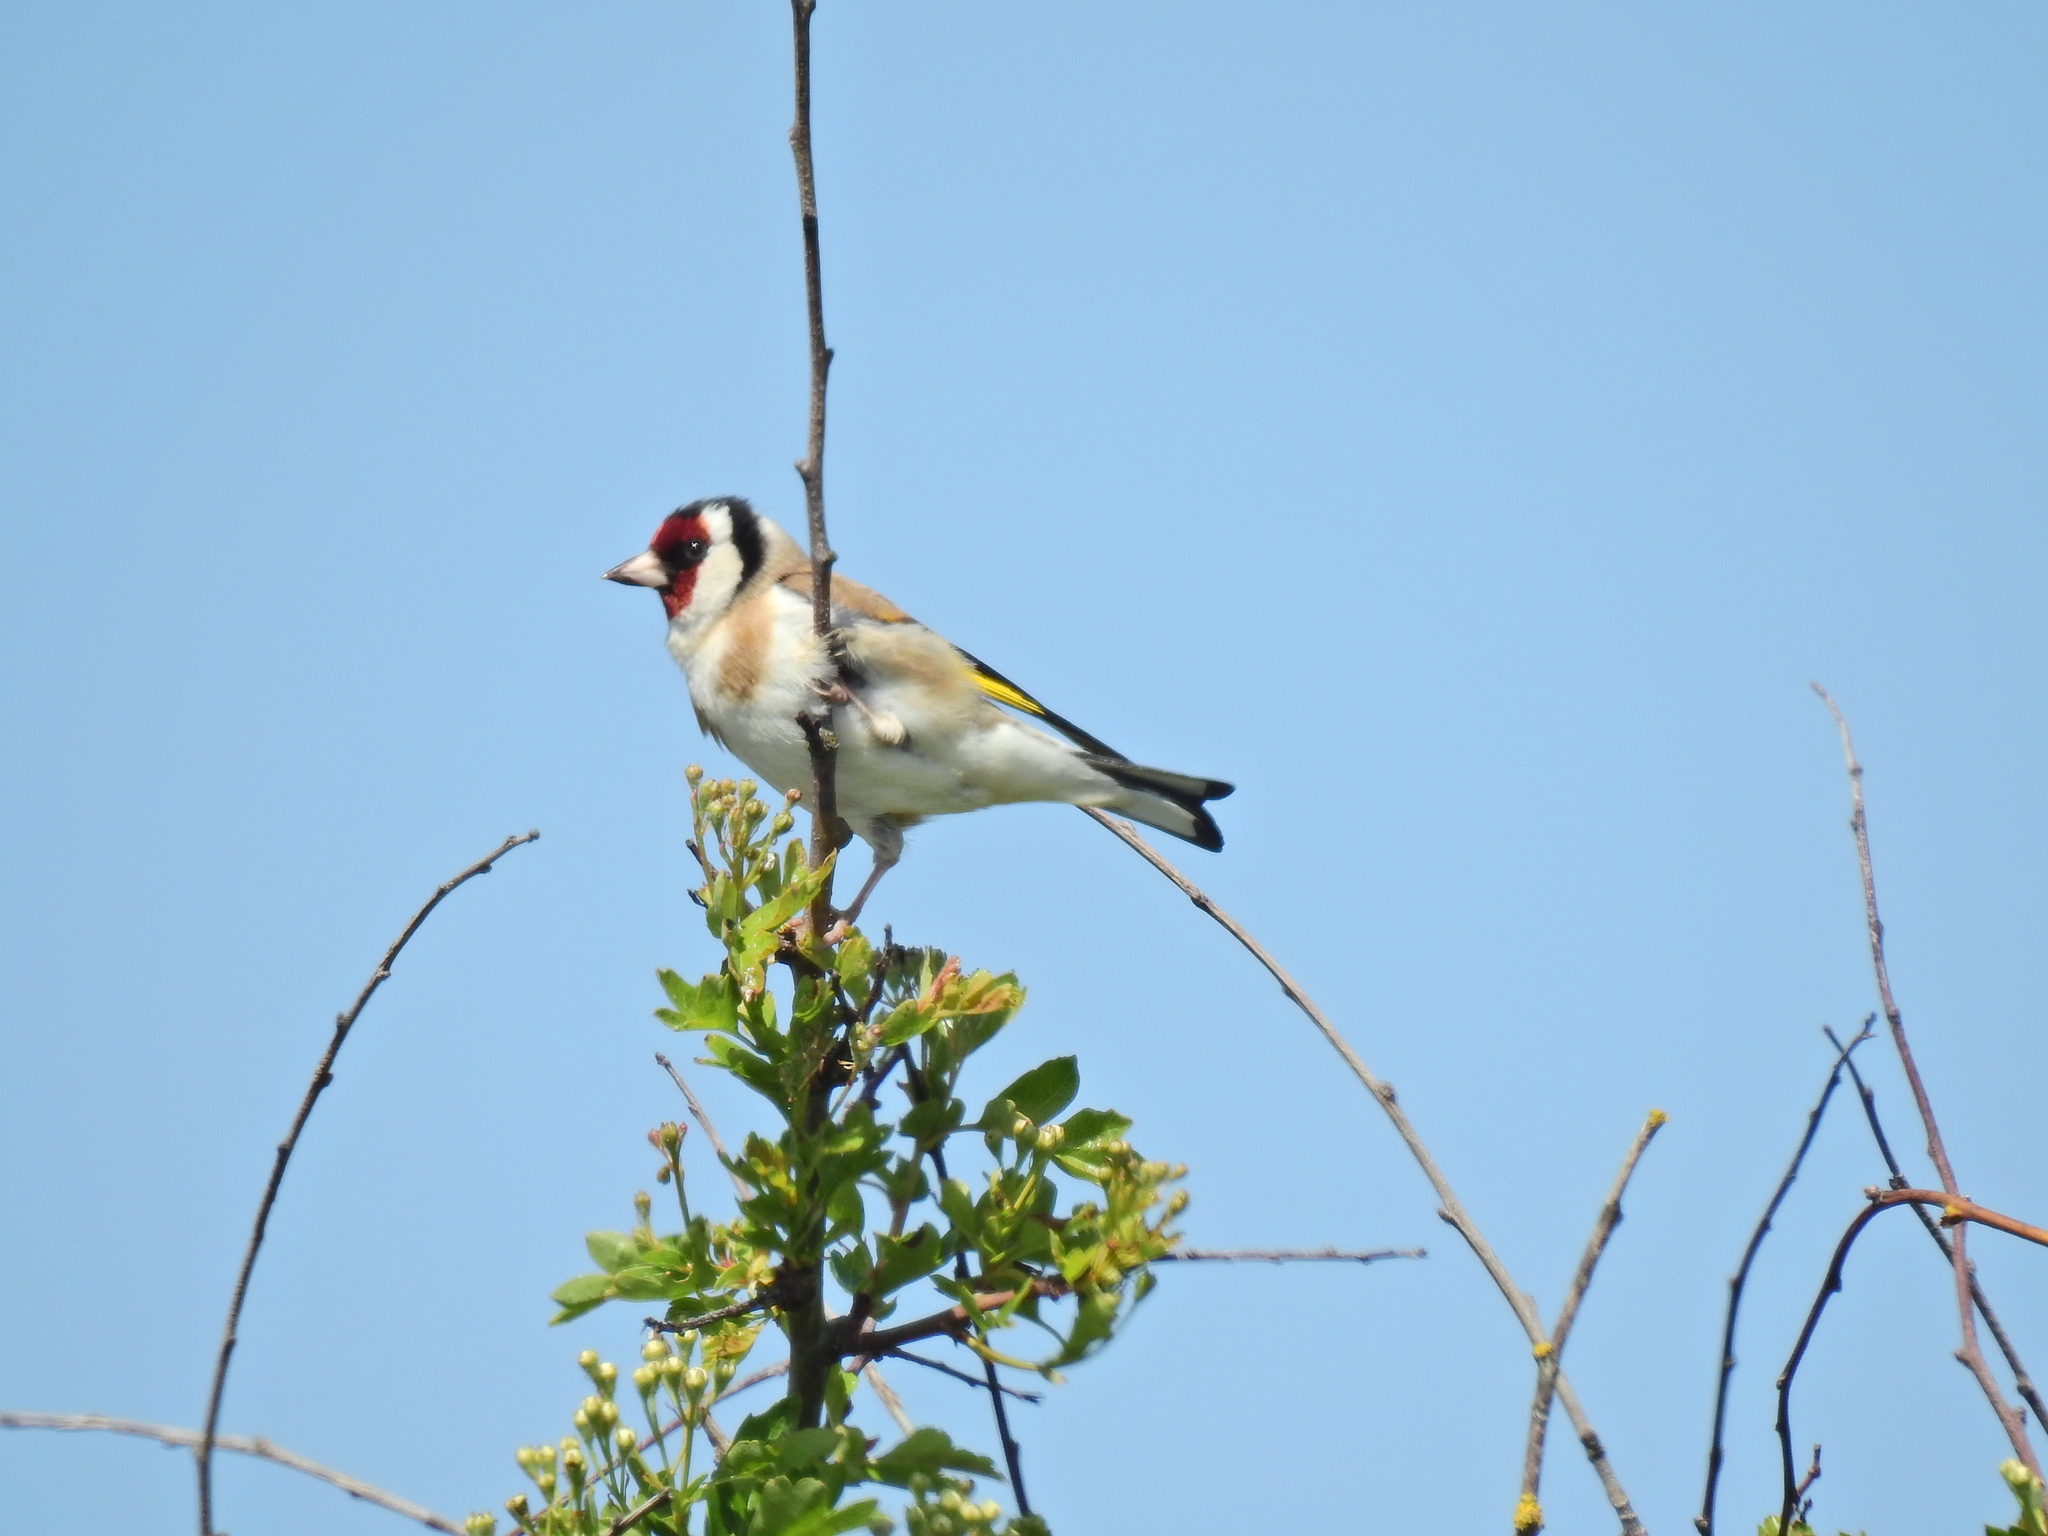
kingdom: Animalia
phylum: Chordata
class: Aves
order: Passeriformes
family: Fringillidae
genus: Carduelis
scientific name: Carduelis carduelis
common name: European goldfinch
